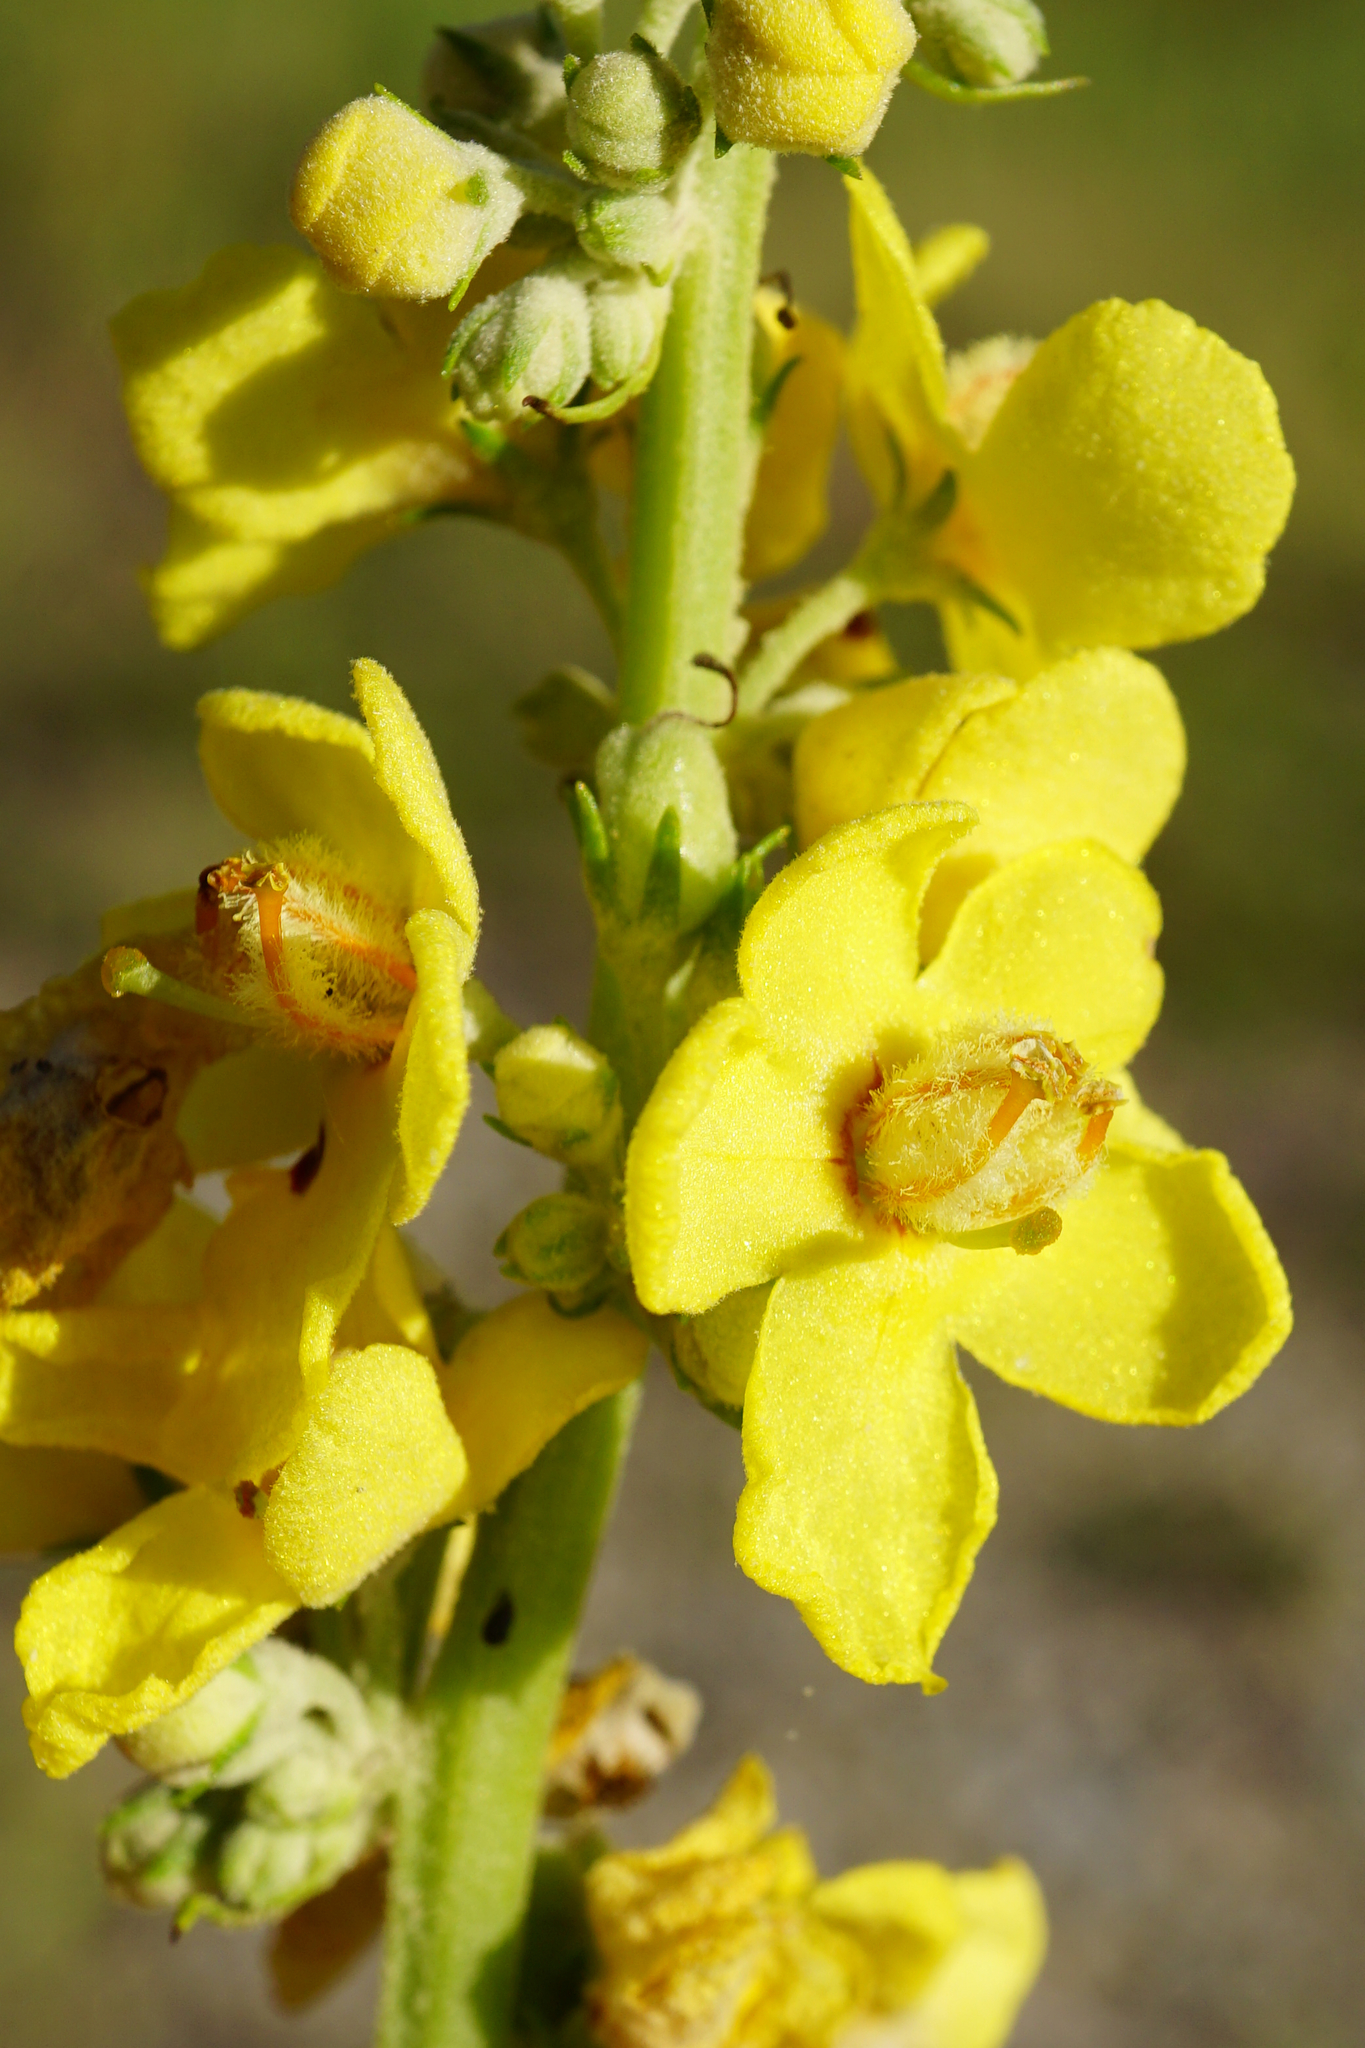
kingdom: Plantae
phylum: Tracheophyta
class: Magnoliopsida
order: Lamiales
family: Scrophulariaceae
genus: Verbascum
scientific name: Verbascum lychnitis
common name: White mullein
